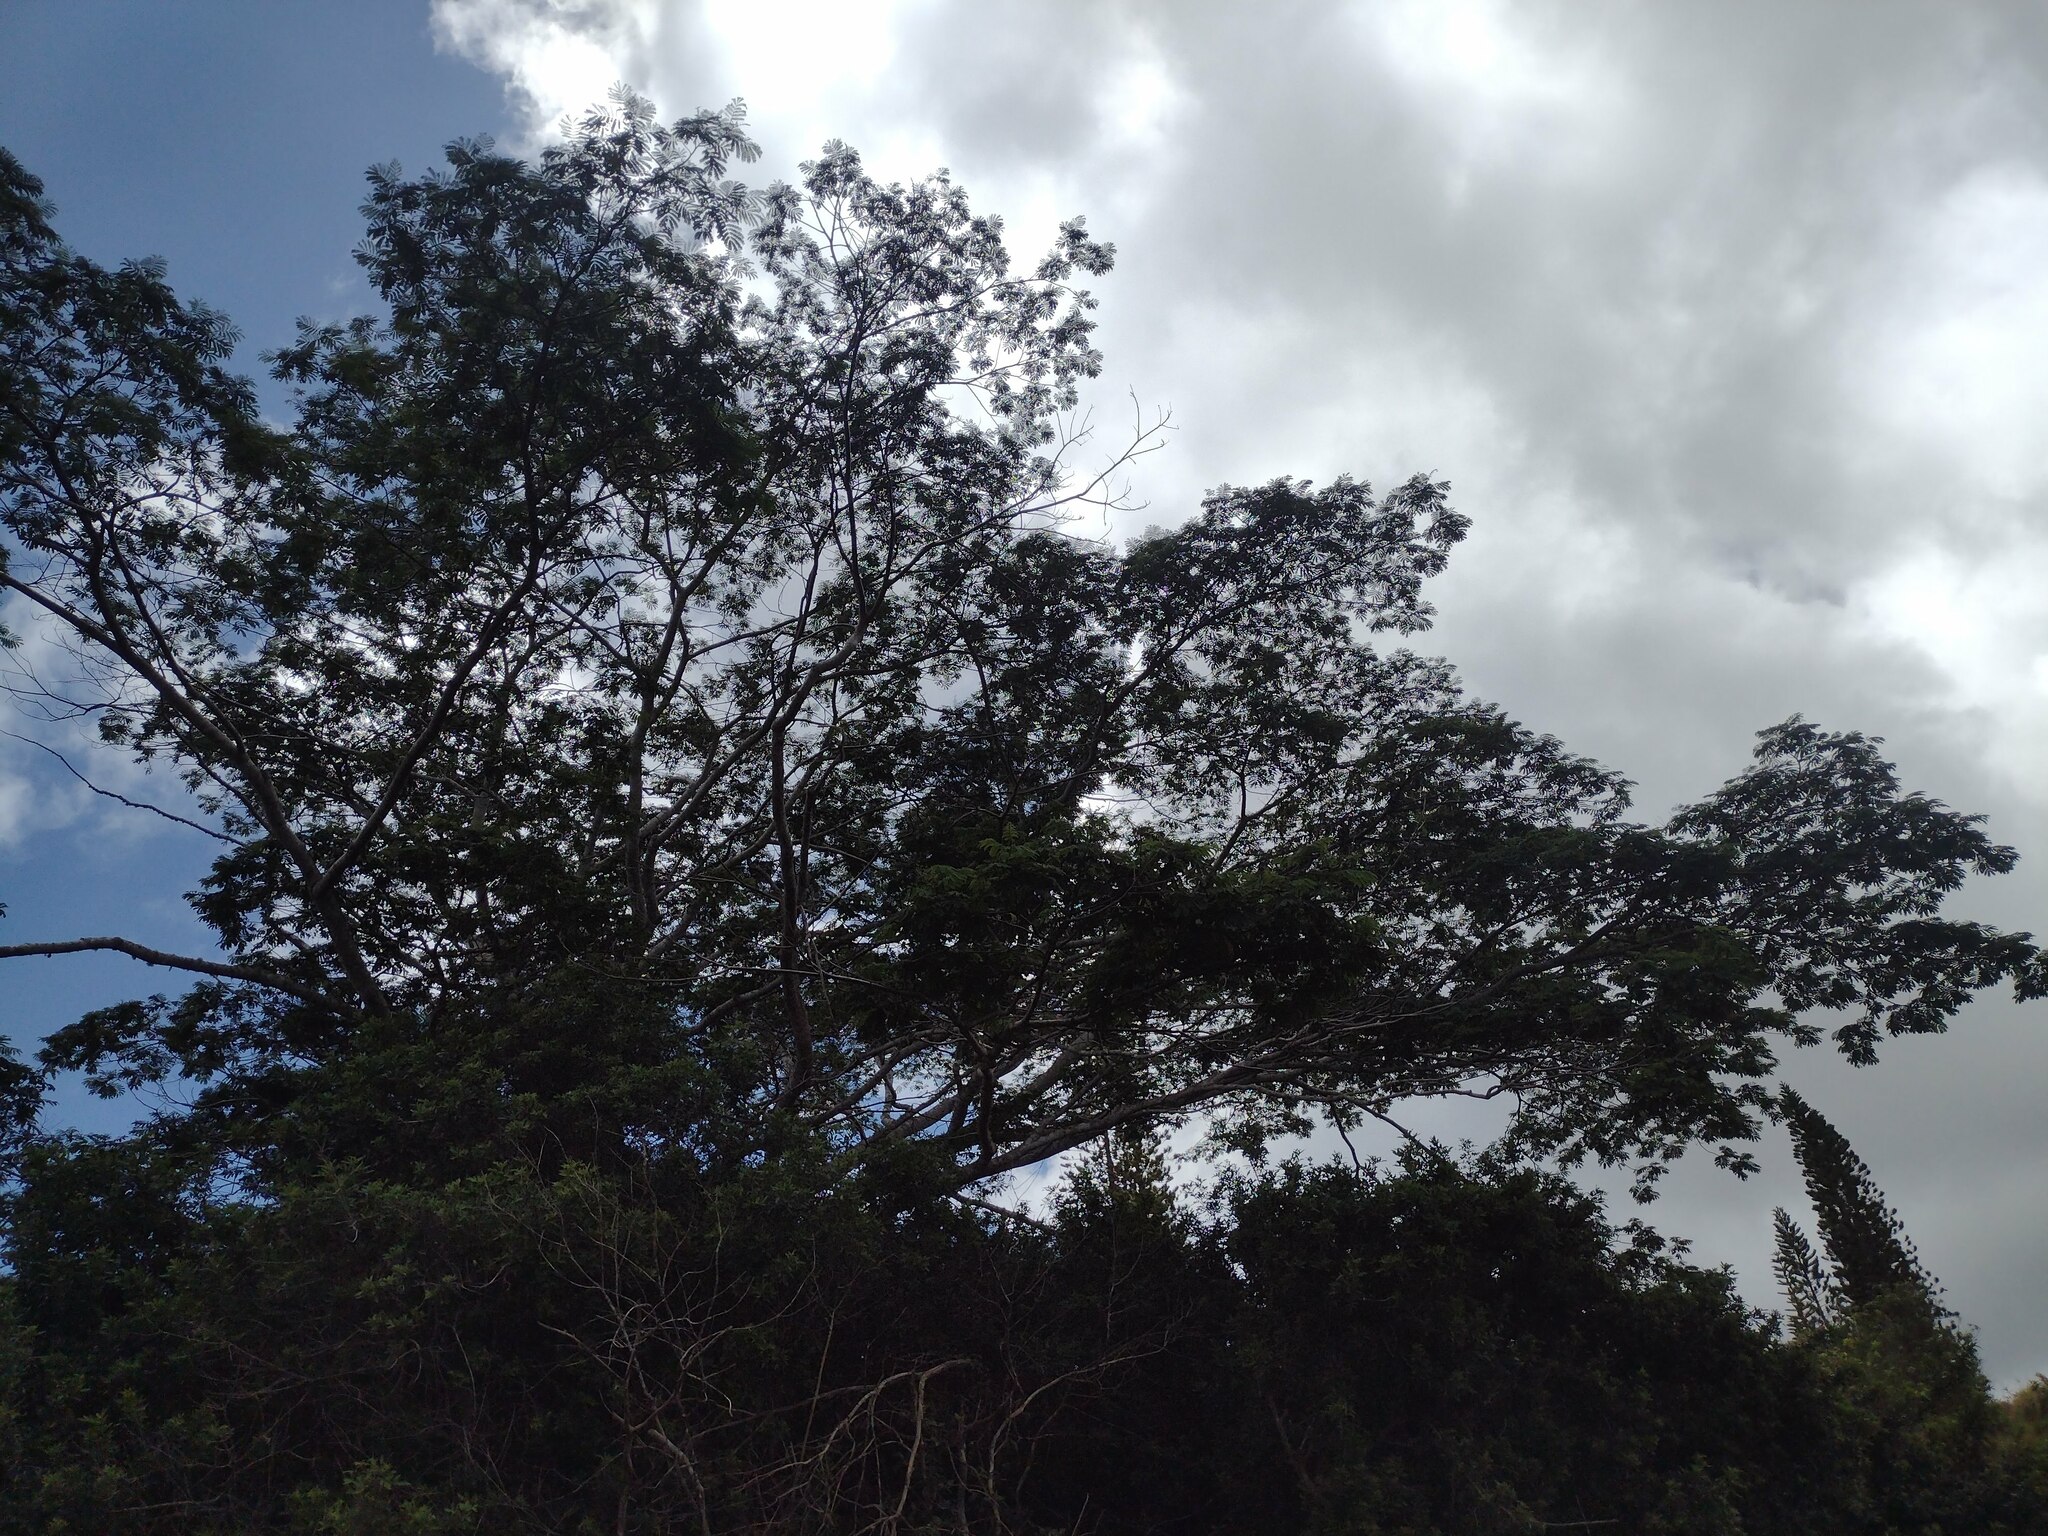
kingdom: Plantae
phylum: Tracheophyta
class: Magnoliopsida
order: Fabales
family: Fabaceae
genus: Falcataria
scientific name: Falcataria falcata
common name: Moluccan albizia
